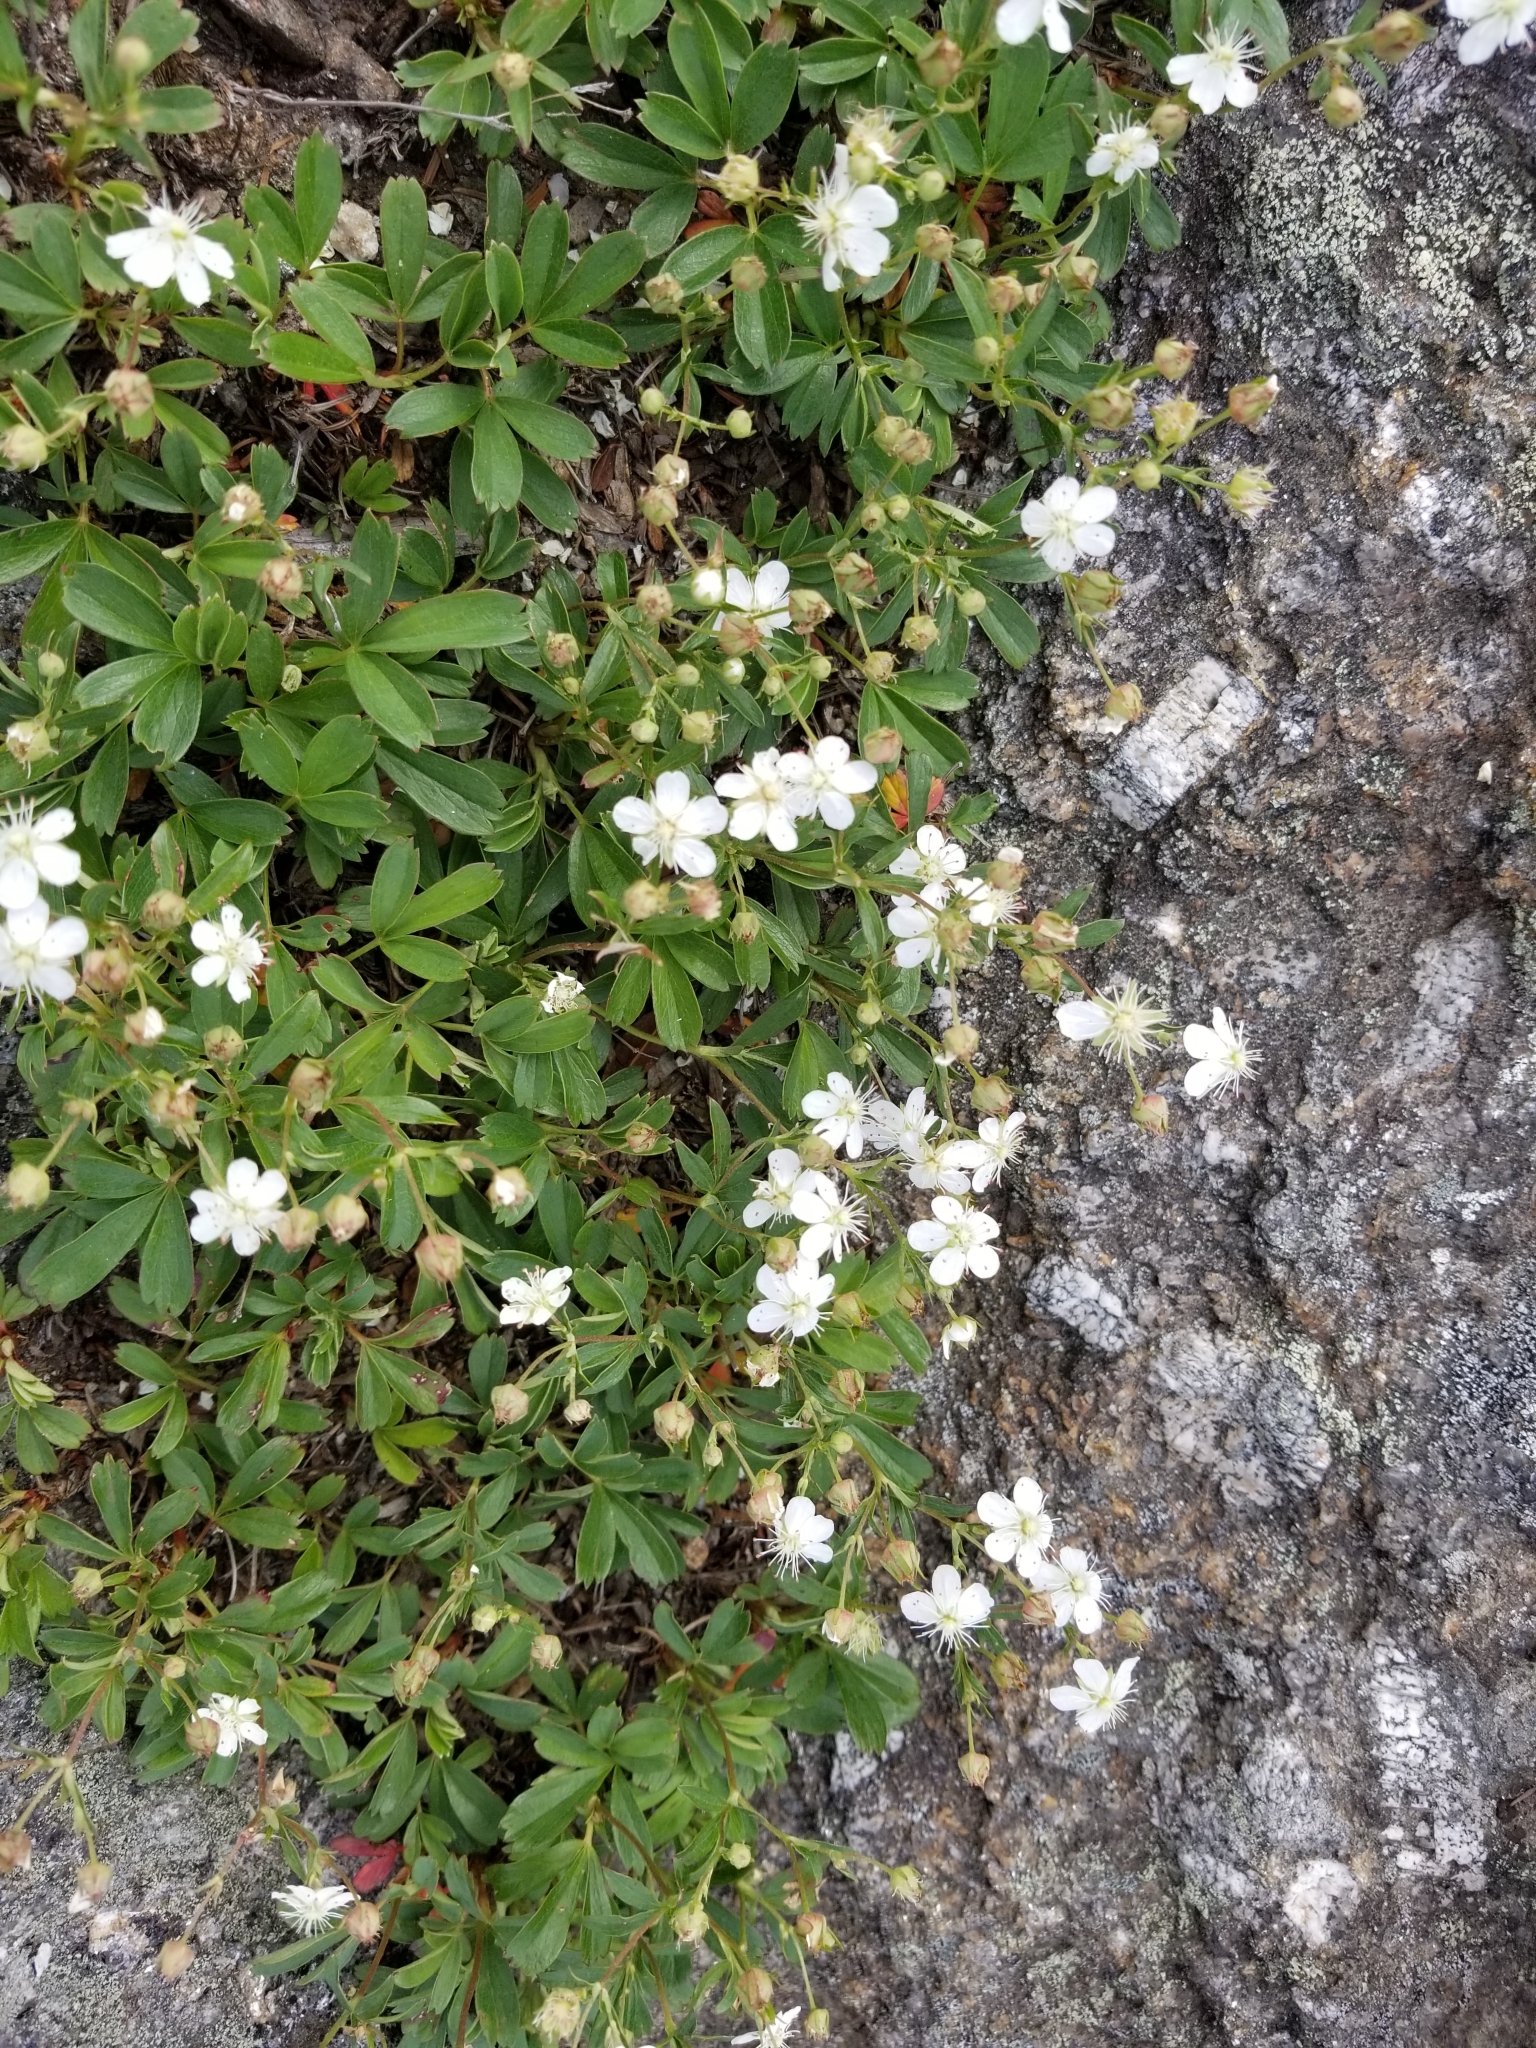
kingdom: Plantae
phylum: Tracheophyta
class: Magnoliopsida
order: Rosales
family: Rosaceae
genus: Sibbaldia
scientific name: Sibbaldia tridentata
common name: Three-toothed cinquefoil
